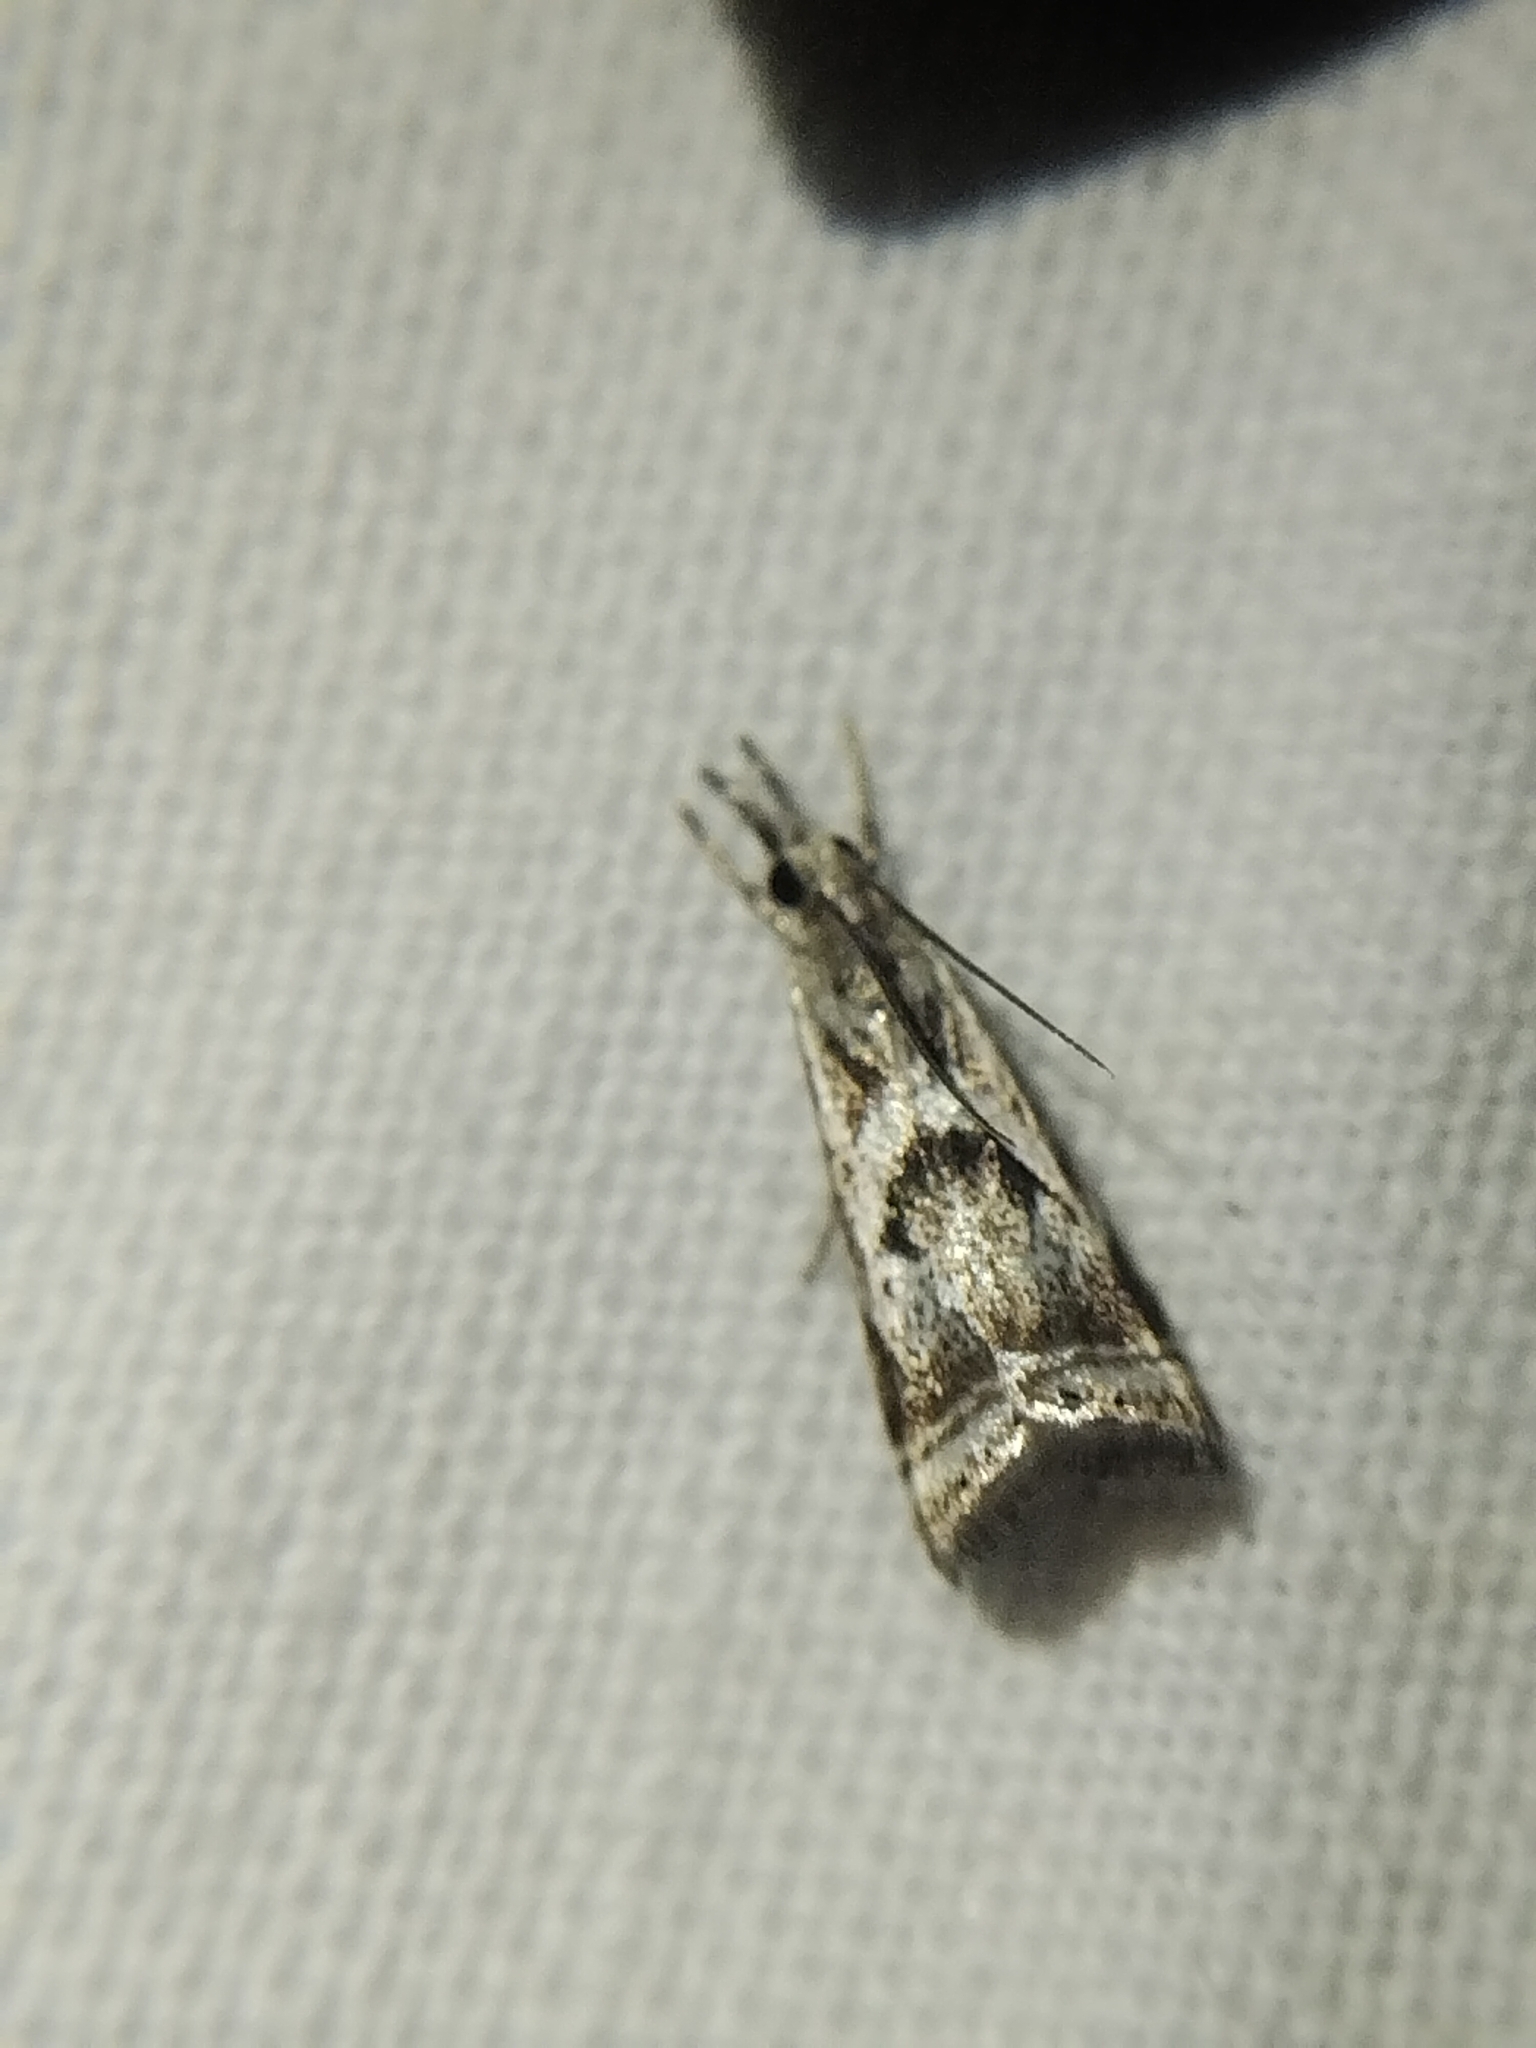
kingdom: Animalia
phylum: Arthropoda
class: Insecta
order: Lepidoptera
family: Crambidae
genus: Microcrambus
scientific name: Microcrambus elegans
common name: Elegant grass-veneer
